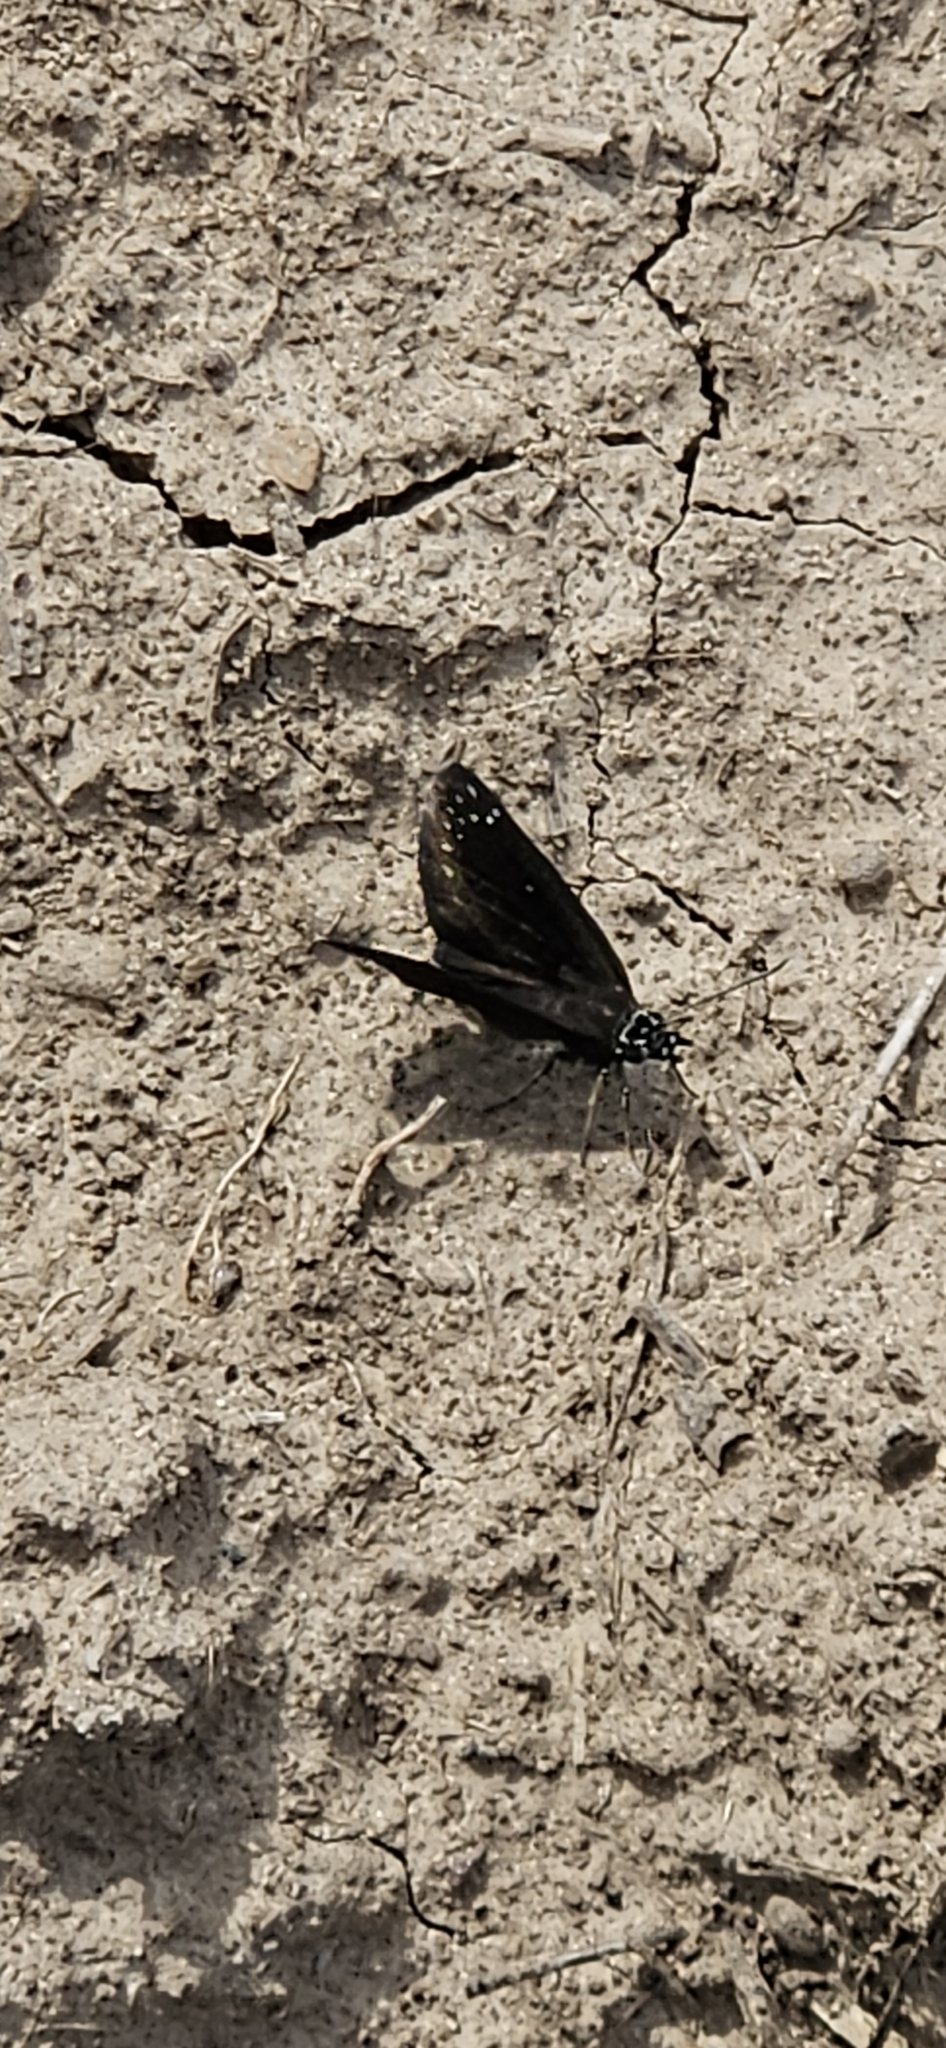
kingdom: Animalia
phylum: Arthropoda
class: Insecta
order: Lepidoptera
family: Hesperiidae
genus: Pholisora
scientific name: Pholisora catullus
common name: Common sootywing
